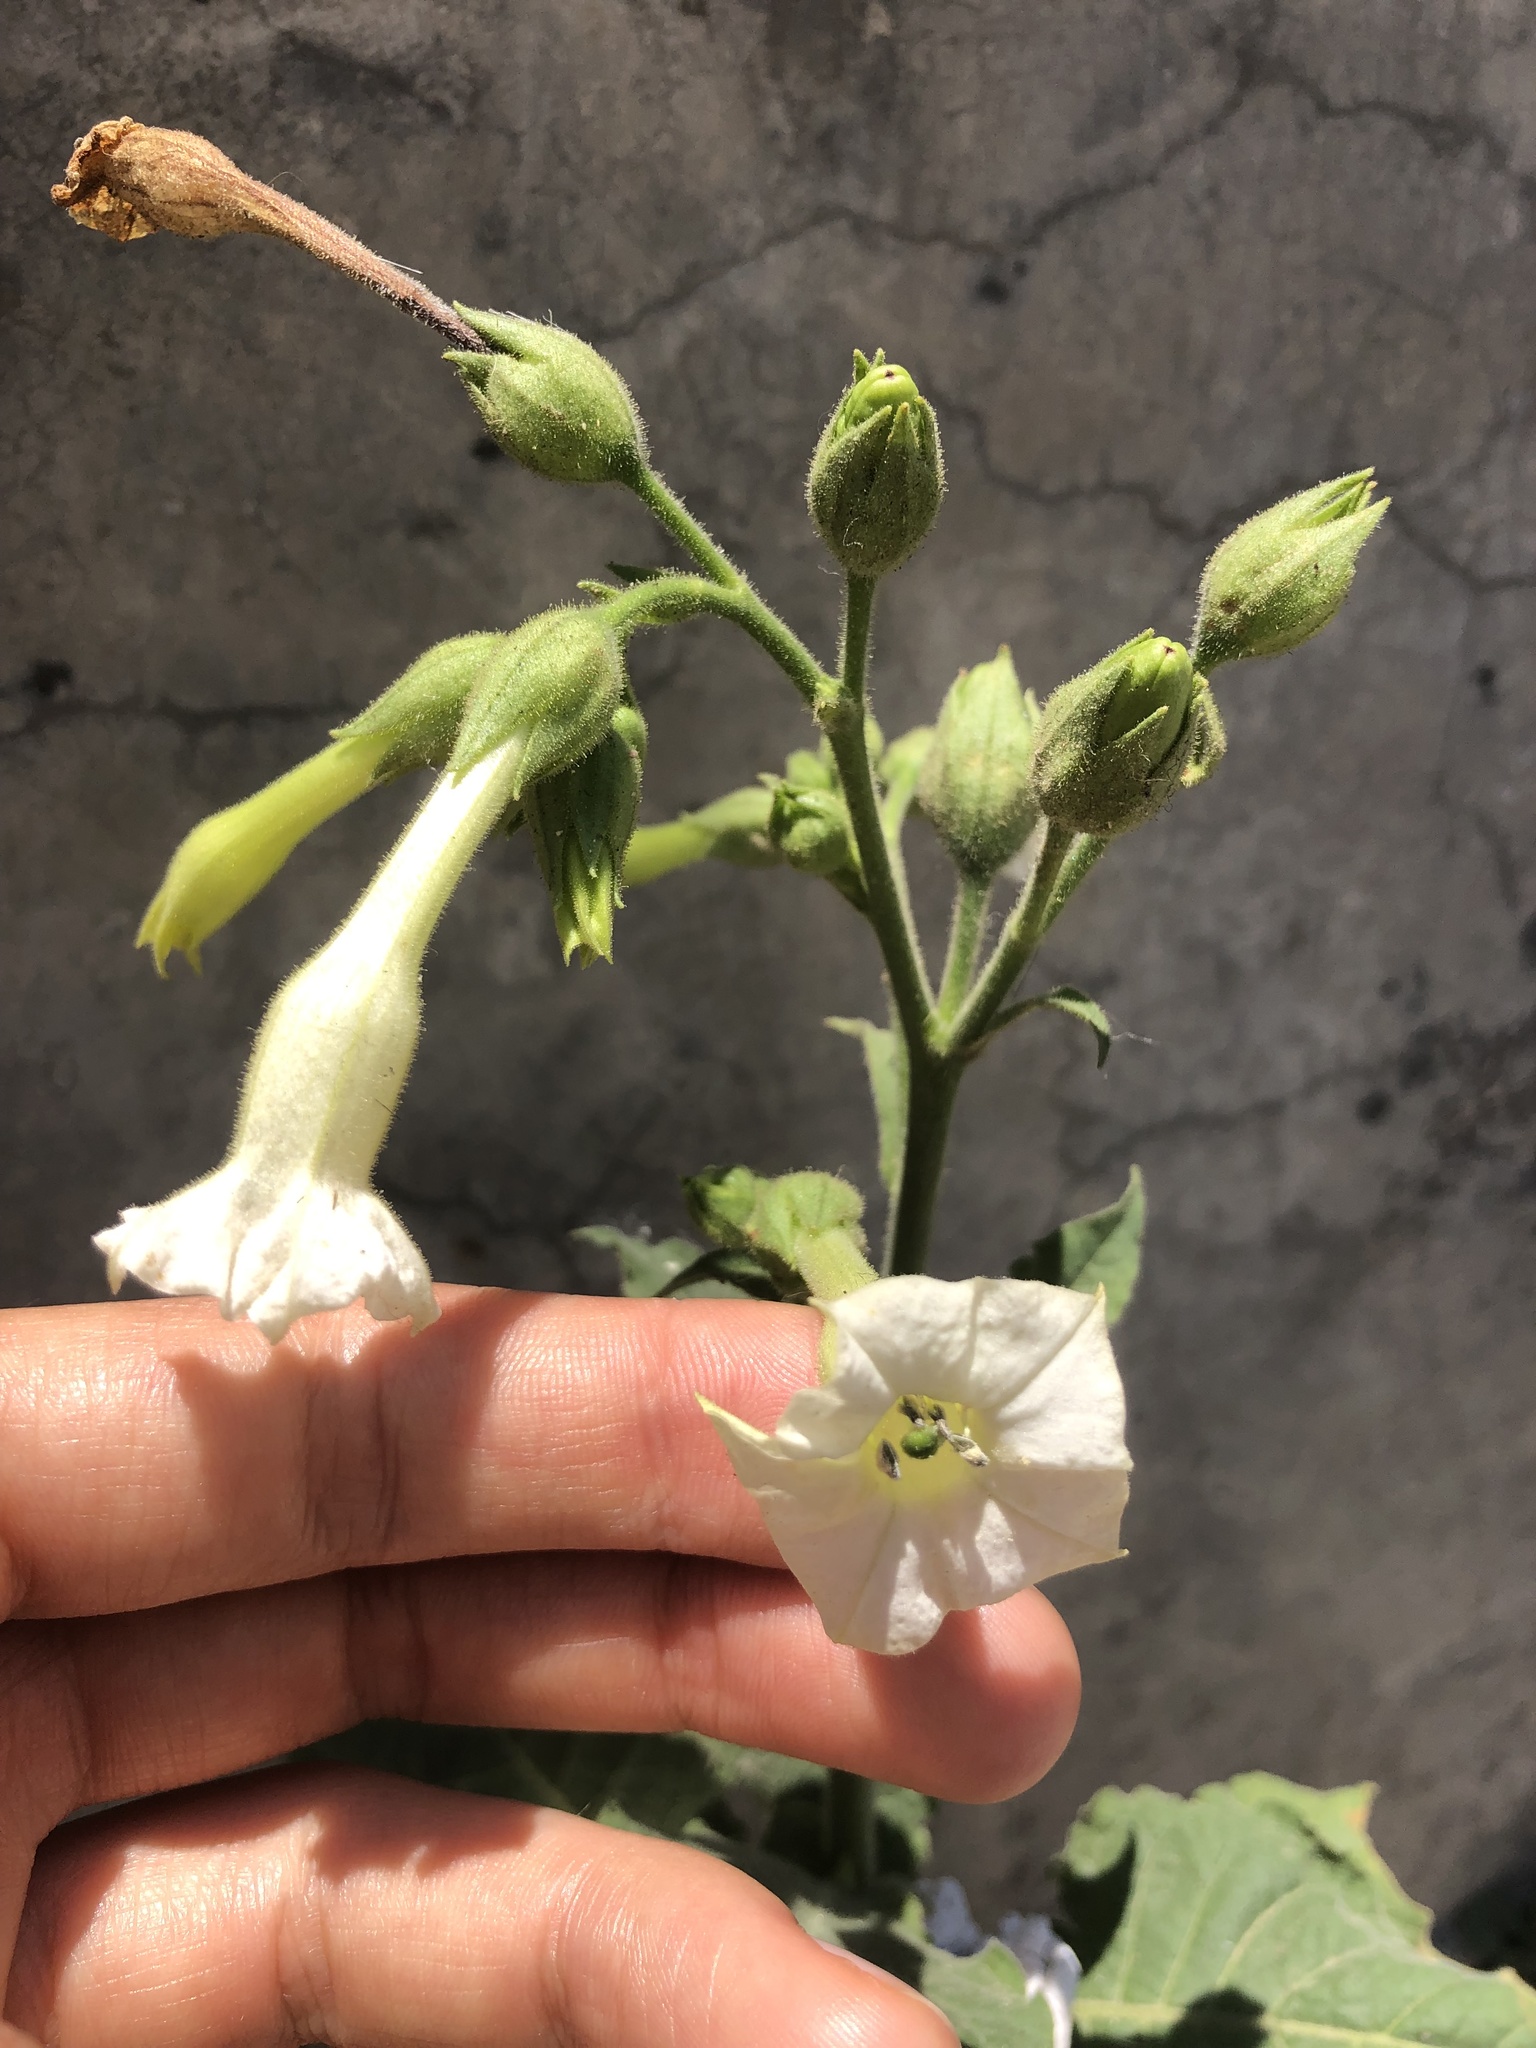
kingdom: Plantae
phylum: Tracheophyta
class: Magnoliopsida
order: Solanales
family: Solanaceae
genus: Nicotiana
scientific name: Nicotiana tabacum
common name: Tobacco
